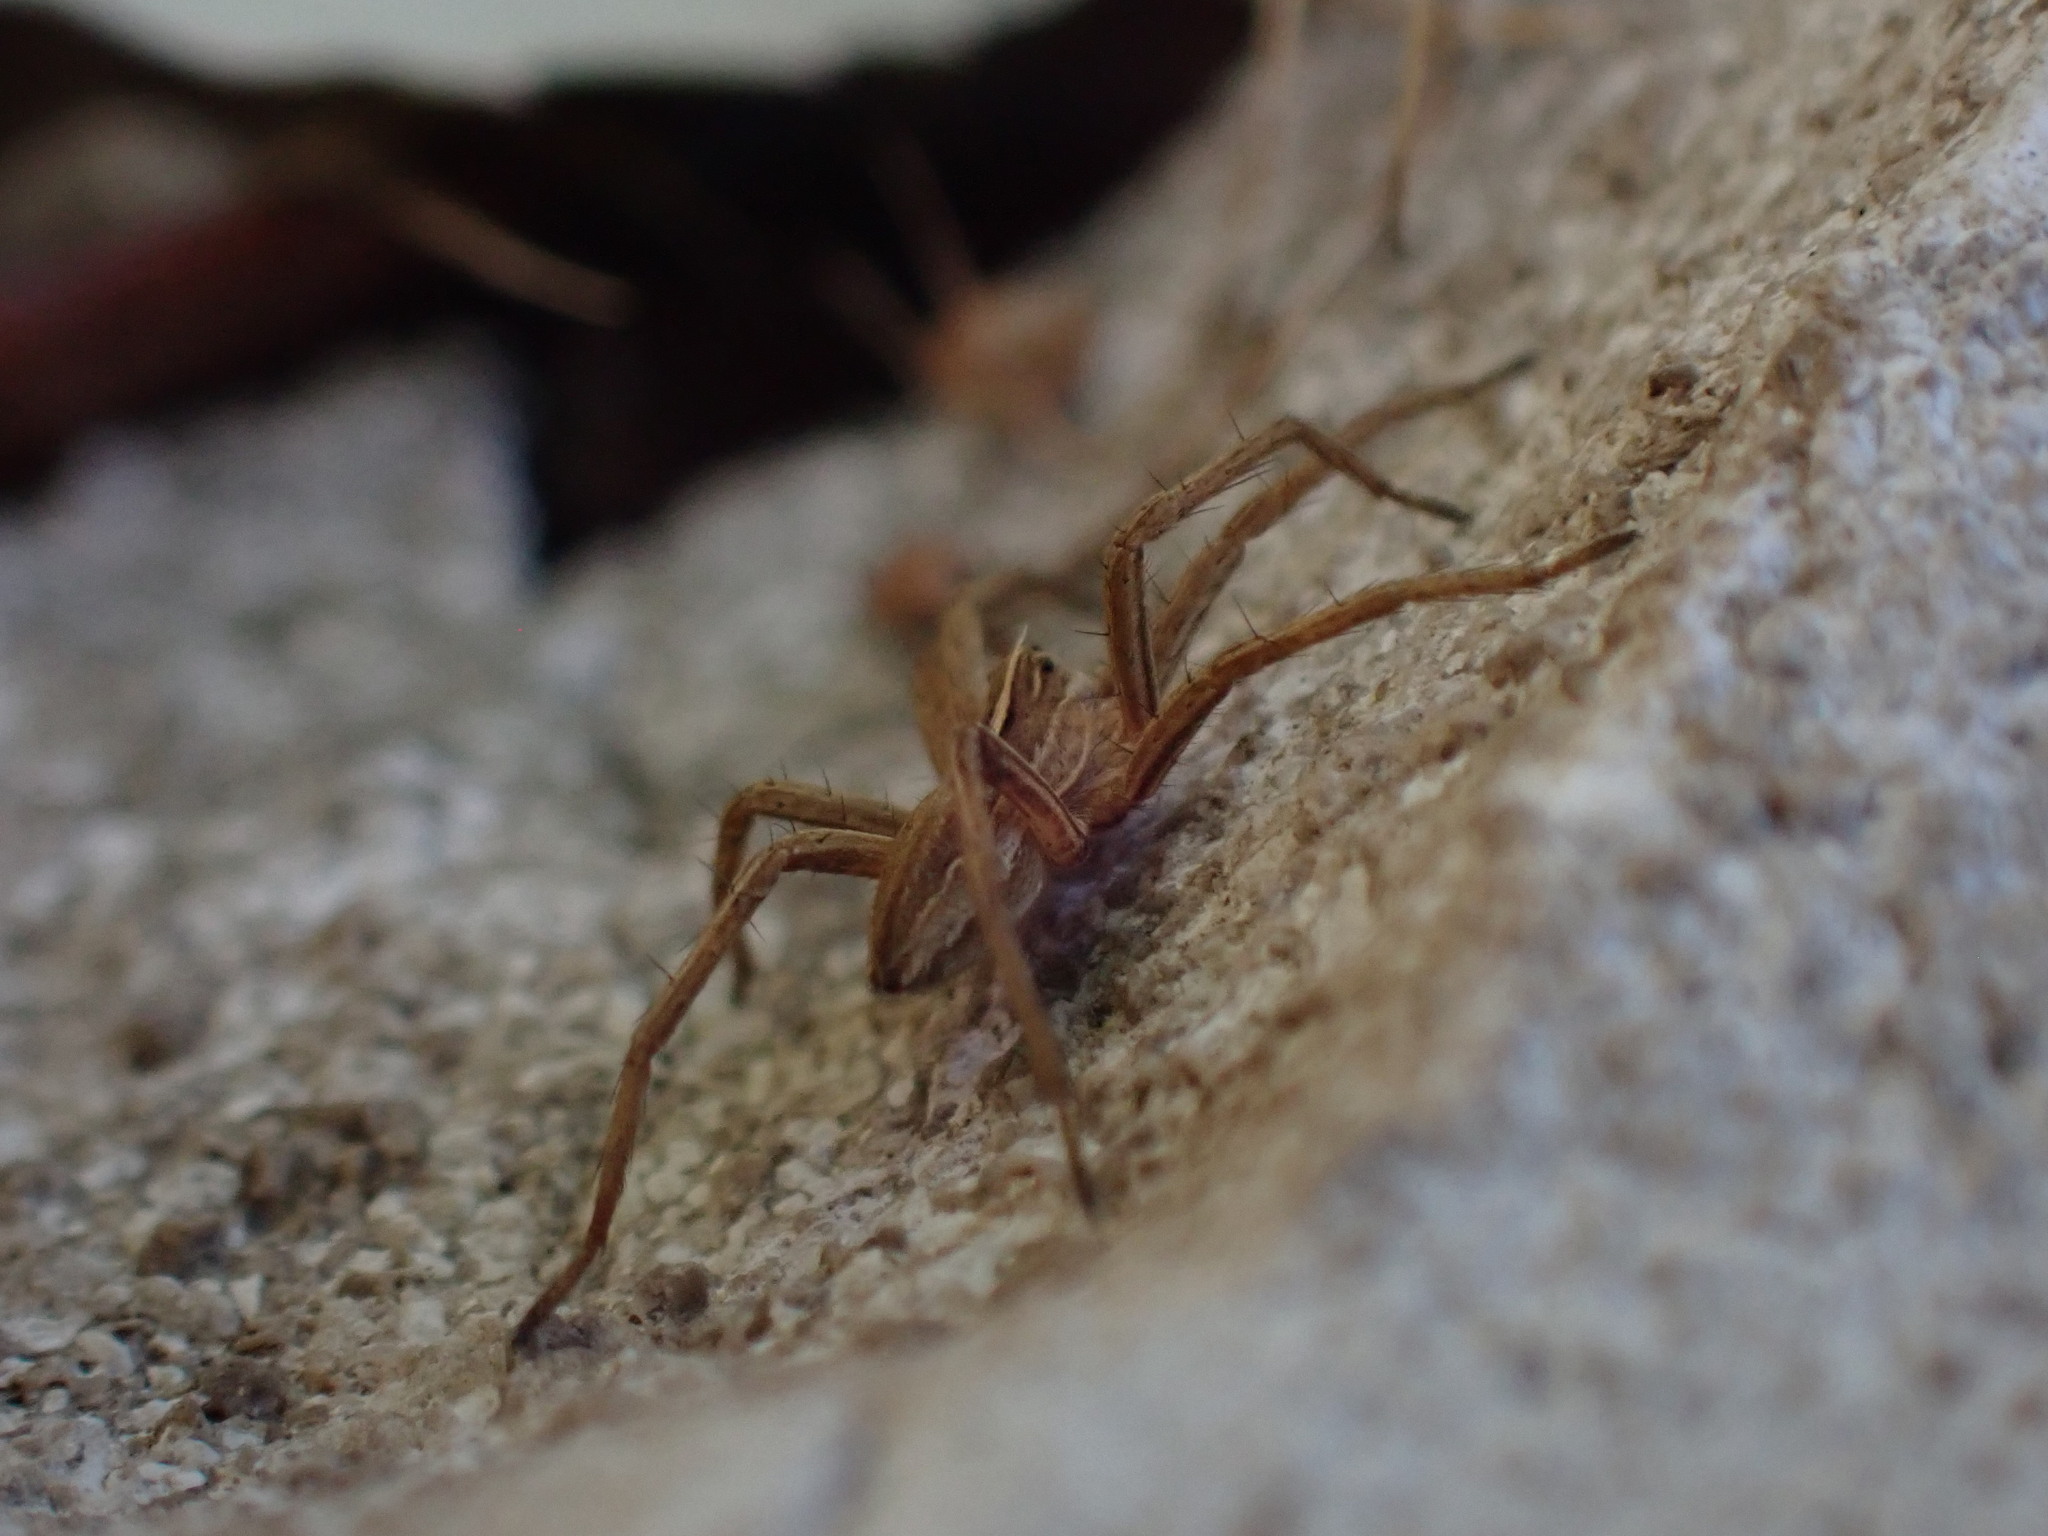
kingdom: Animalia
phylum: Arthropoda
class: Arachnida
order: Araneae
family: Pisauridae
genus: Pisaura
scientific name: Pisaura mirabilis
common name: Tent spider
